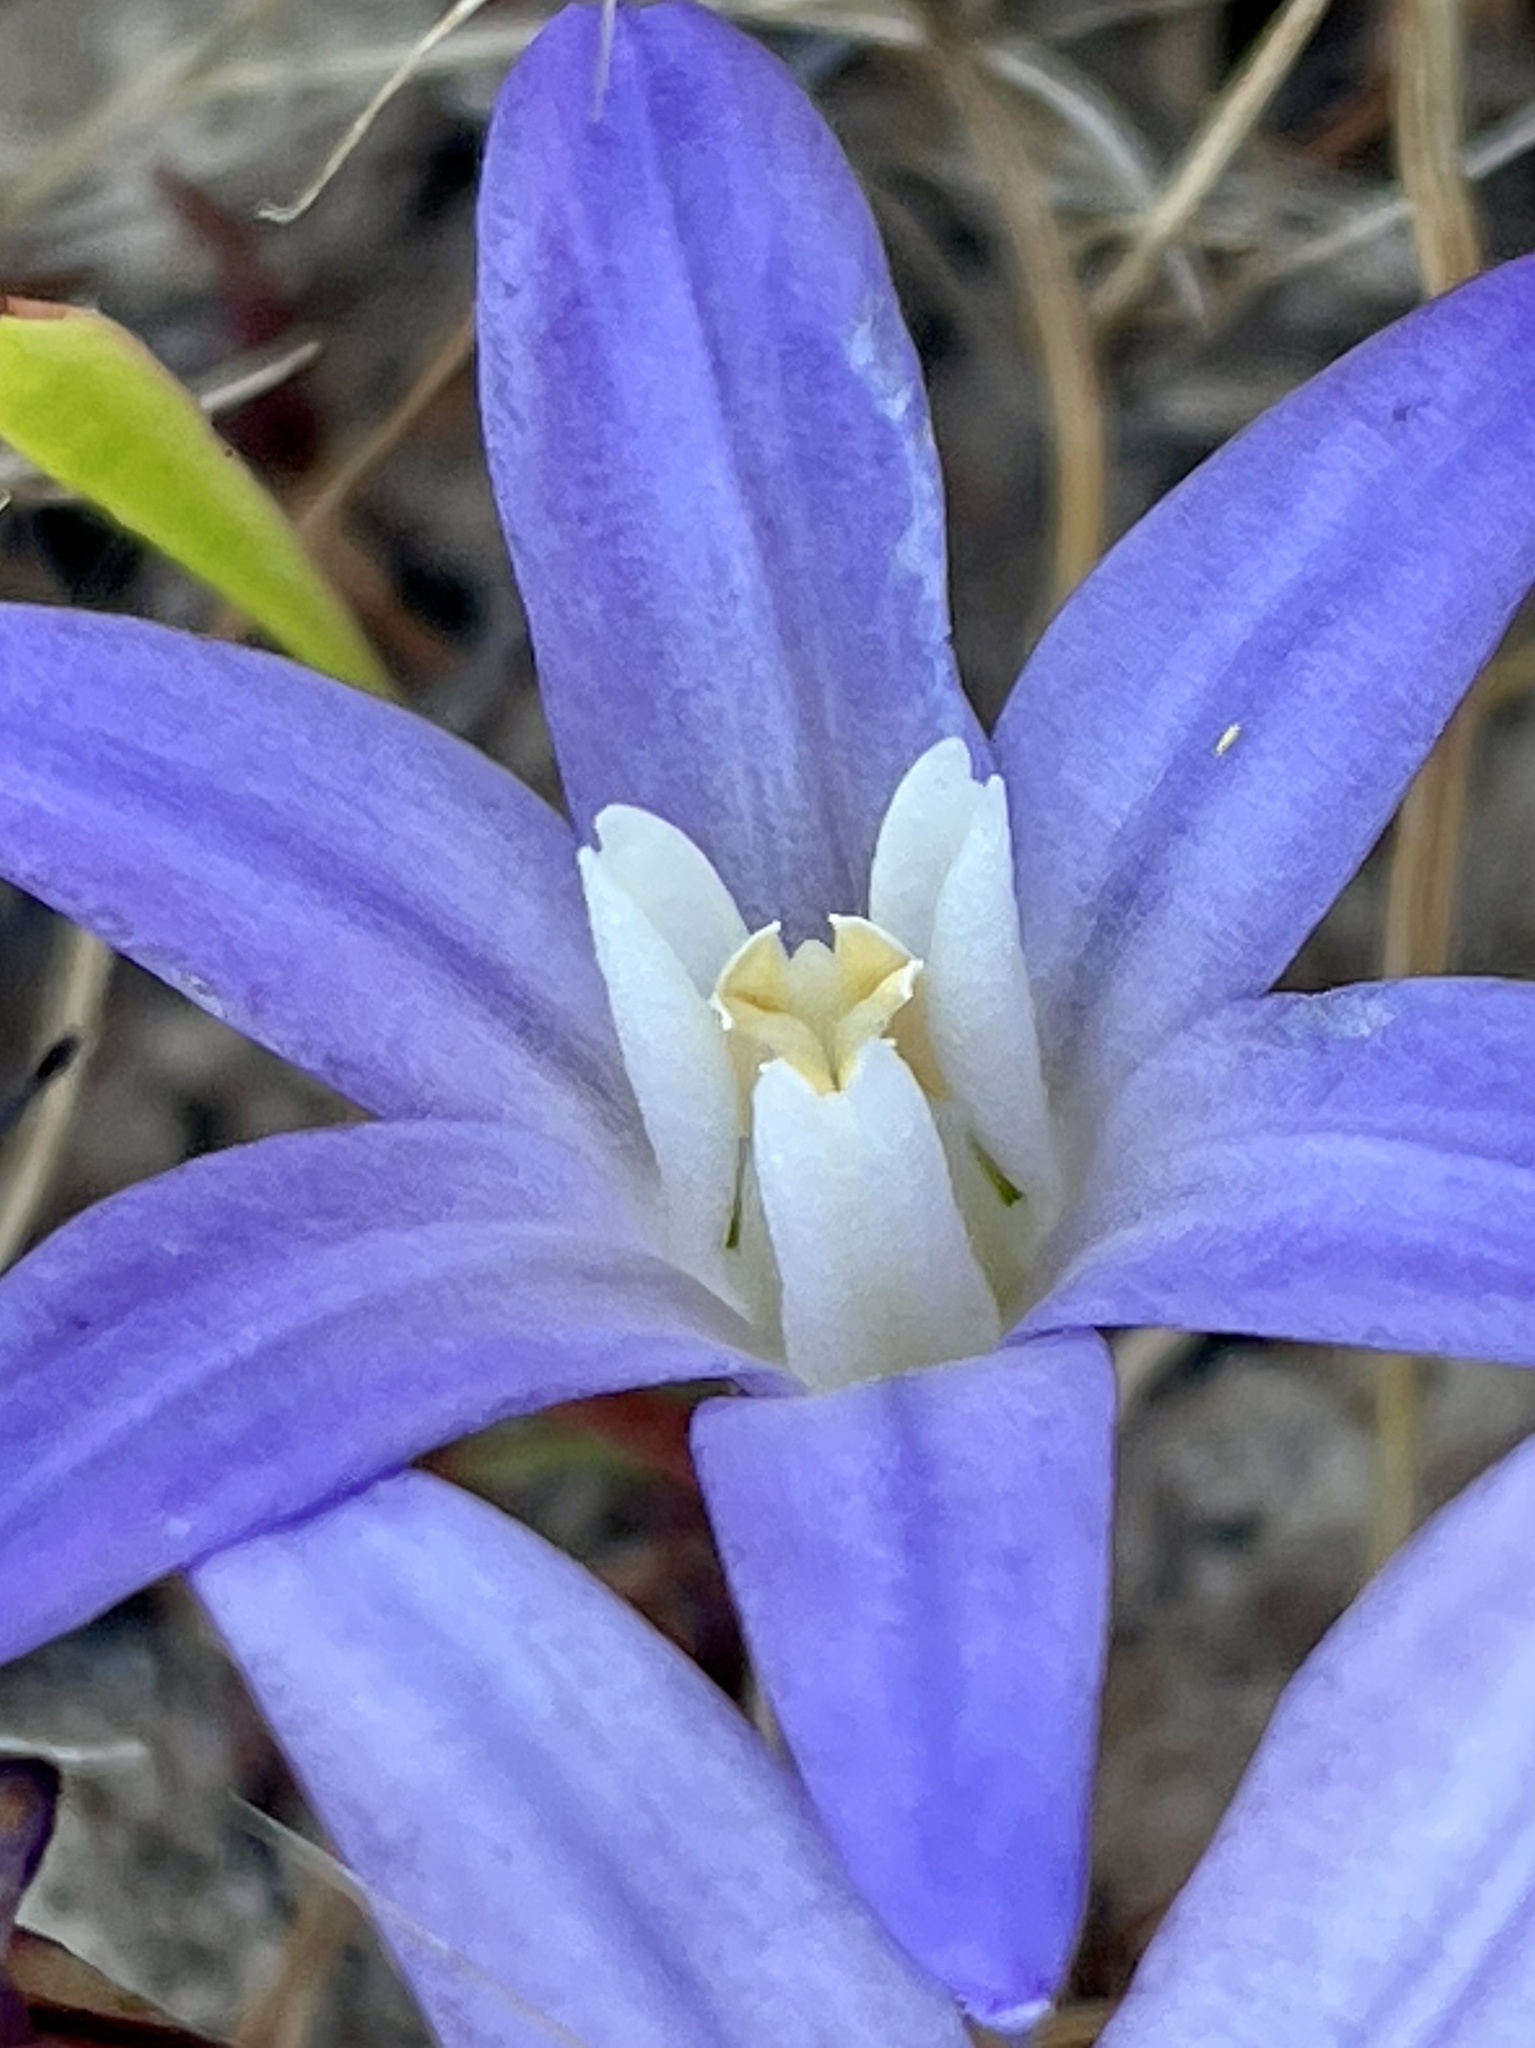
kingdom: Plantae
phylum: Tracheophyta
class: Liliopsida
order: Asparagales
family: Asparagaceae
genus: Brodiaea
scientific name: Brodiaea terrestris
